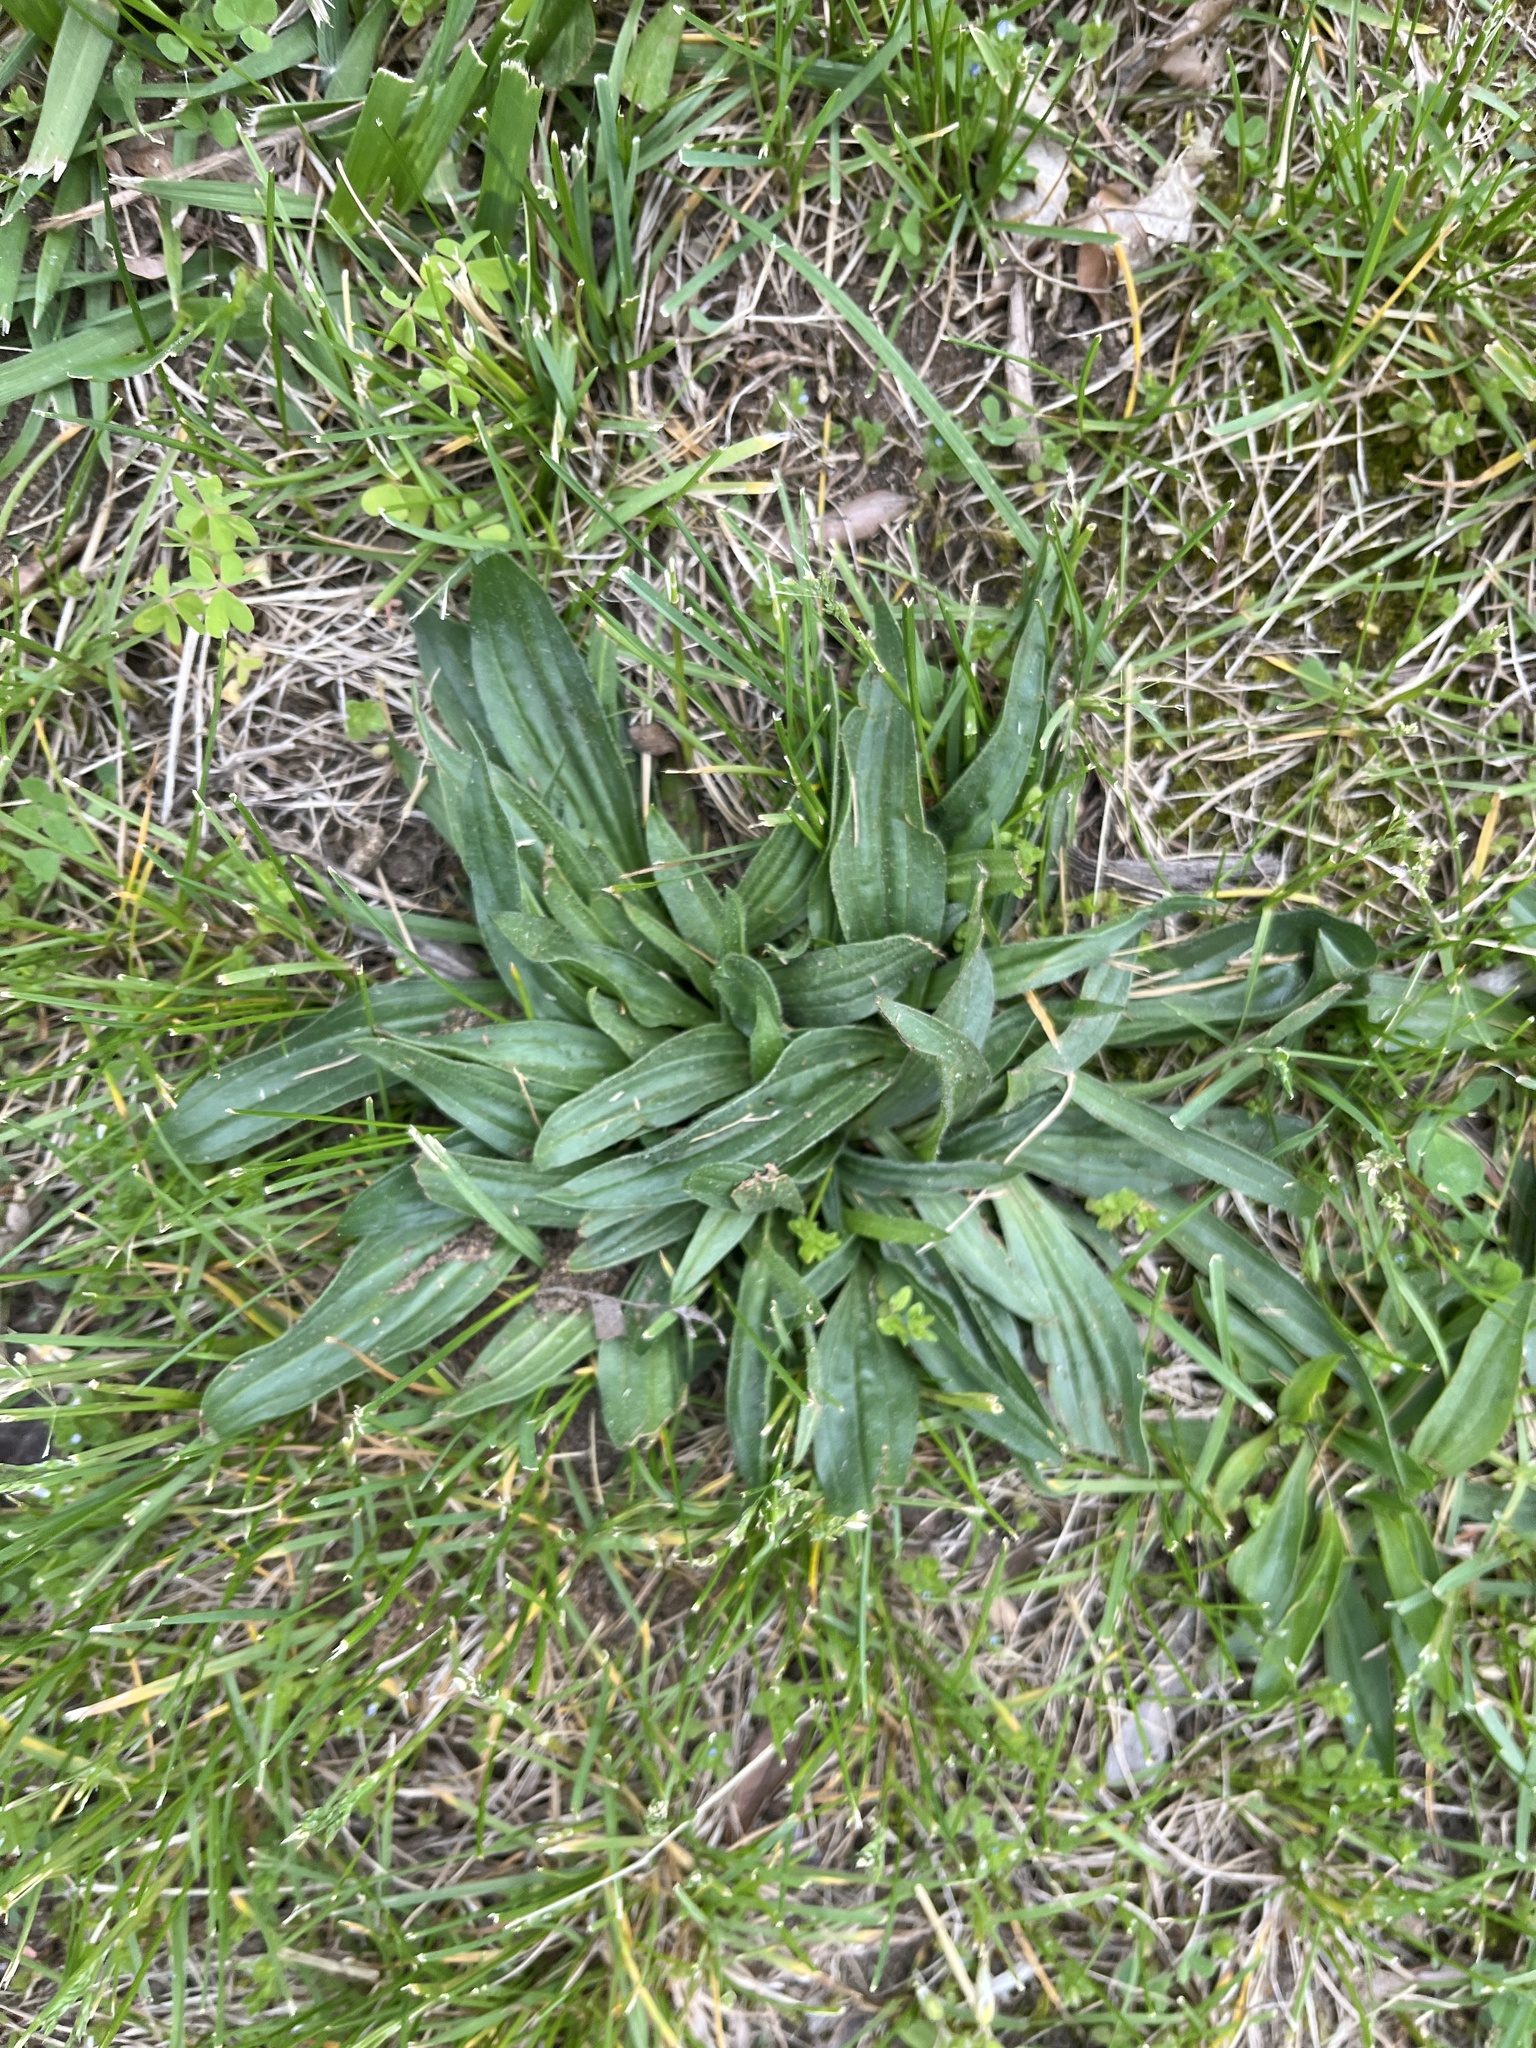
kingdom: Plantae
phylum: Tracheophyta
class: Magnoliopsida
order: Lamiales
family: Plantaginaceae
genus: Plantago
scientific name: Plantago lanceolata
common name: Ribwort plantain
